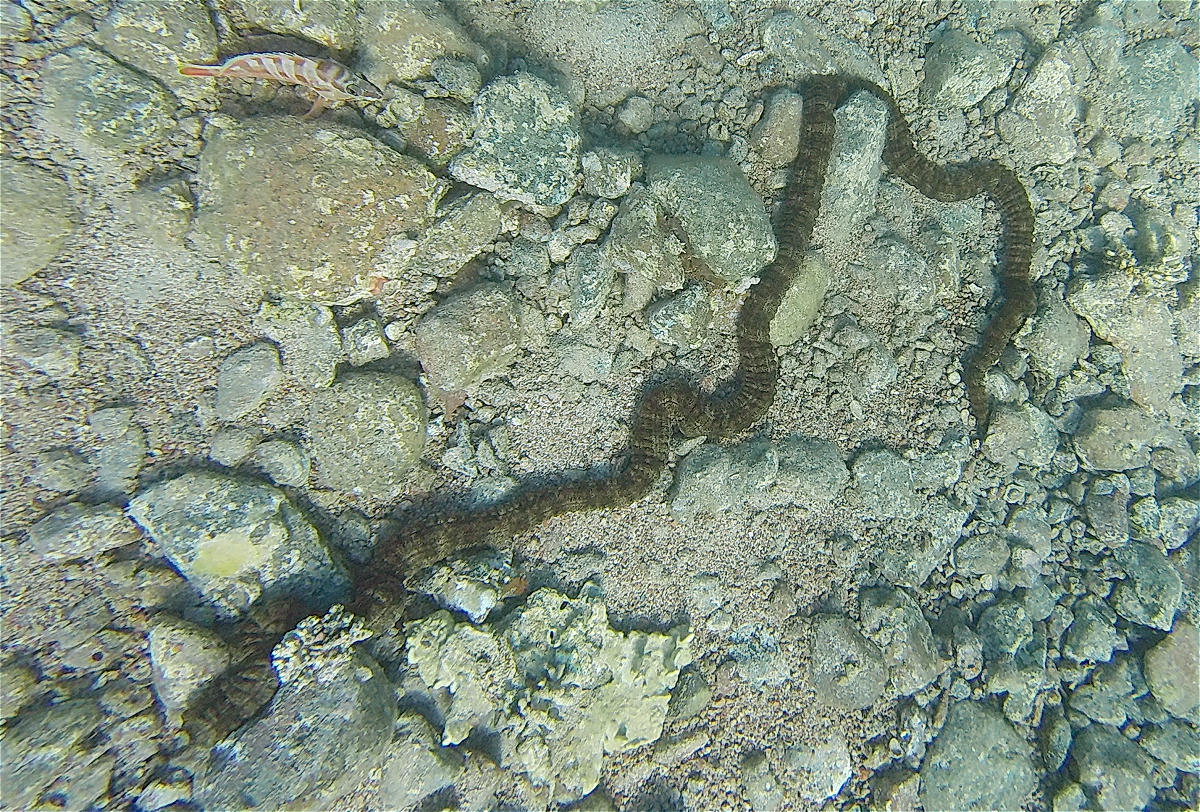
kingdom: Animalia
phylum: Echinodermata
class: Holothuroidea
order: Apodida
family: Synaptidae
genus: Synapta
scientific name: Synapta maculata
